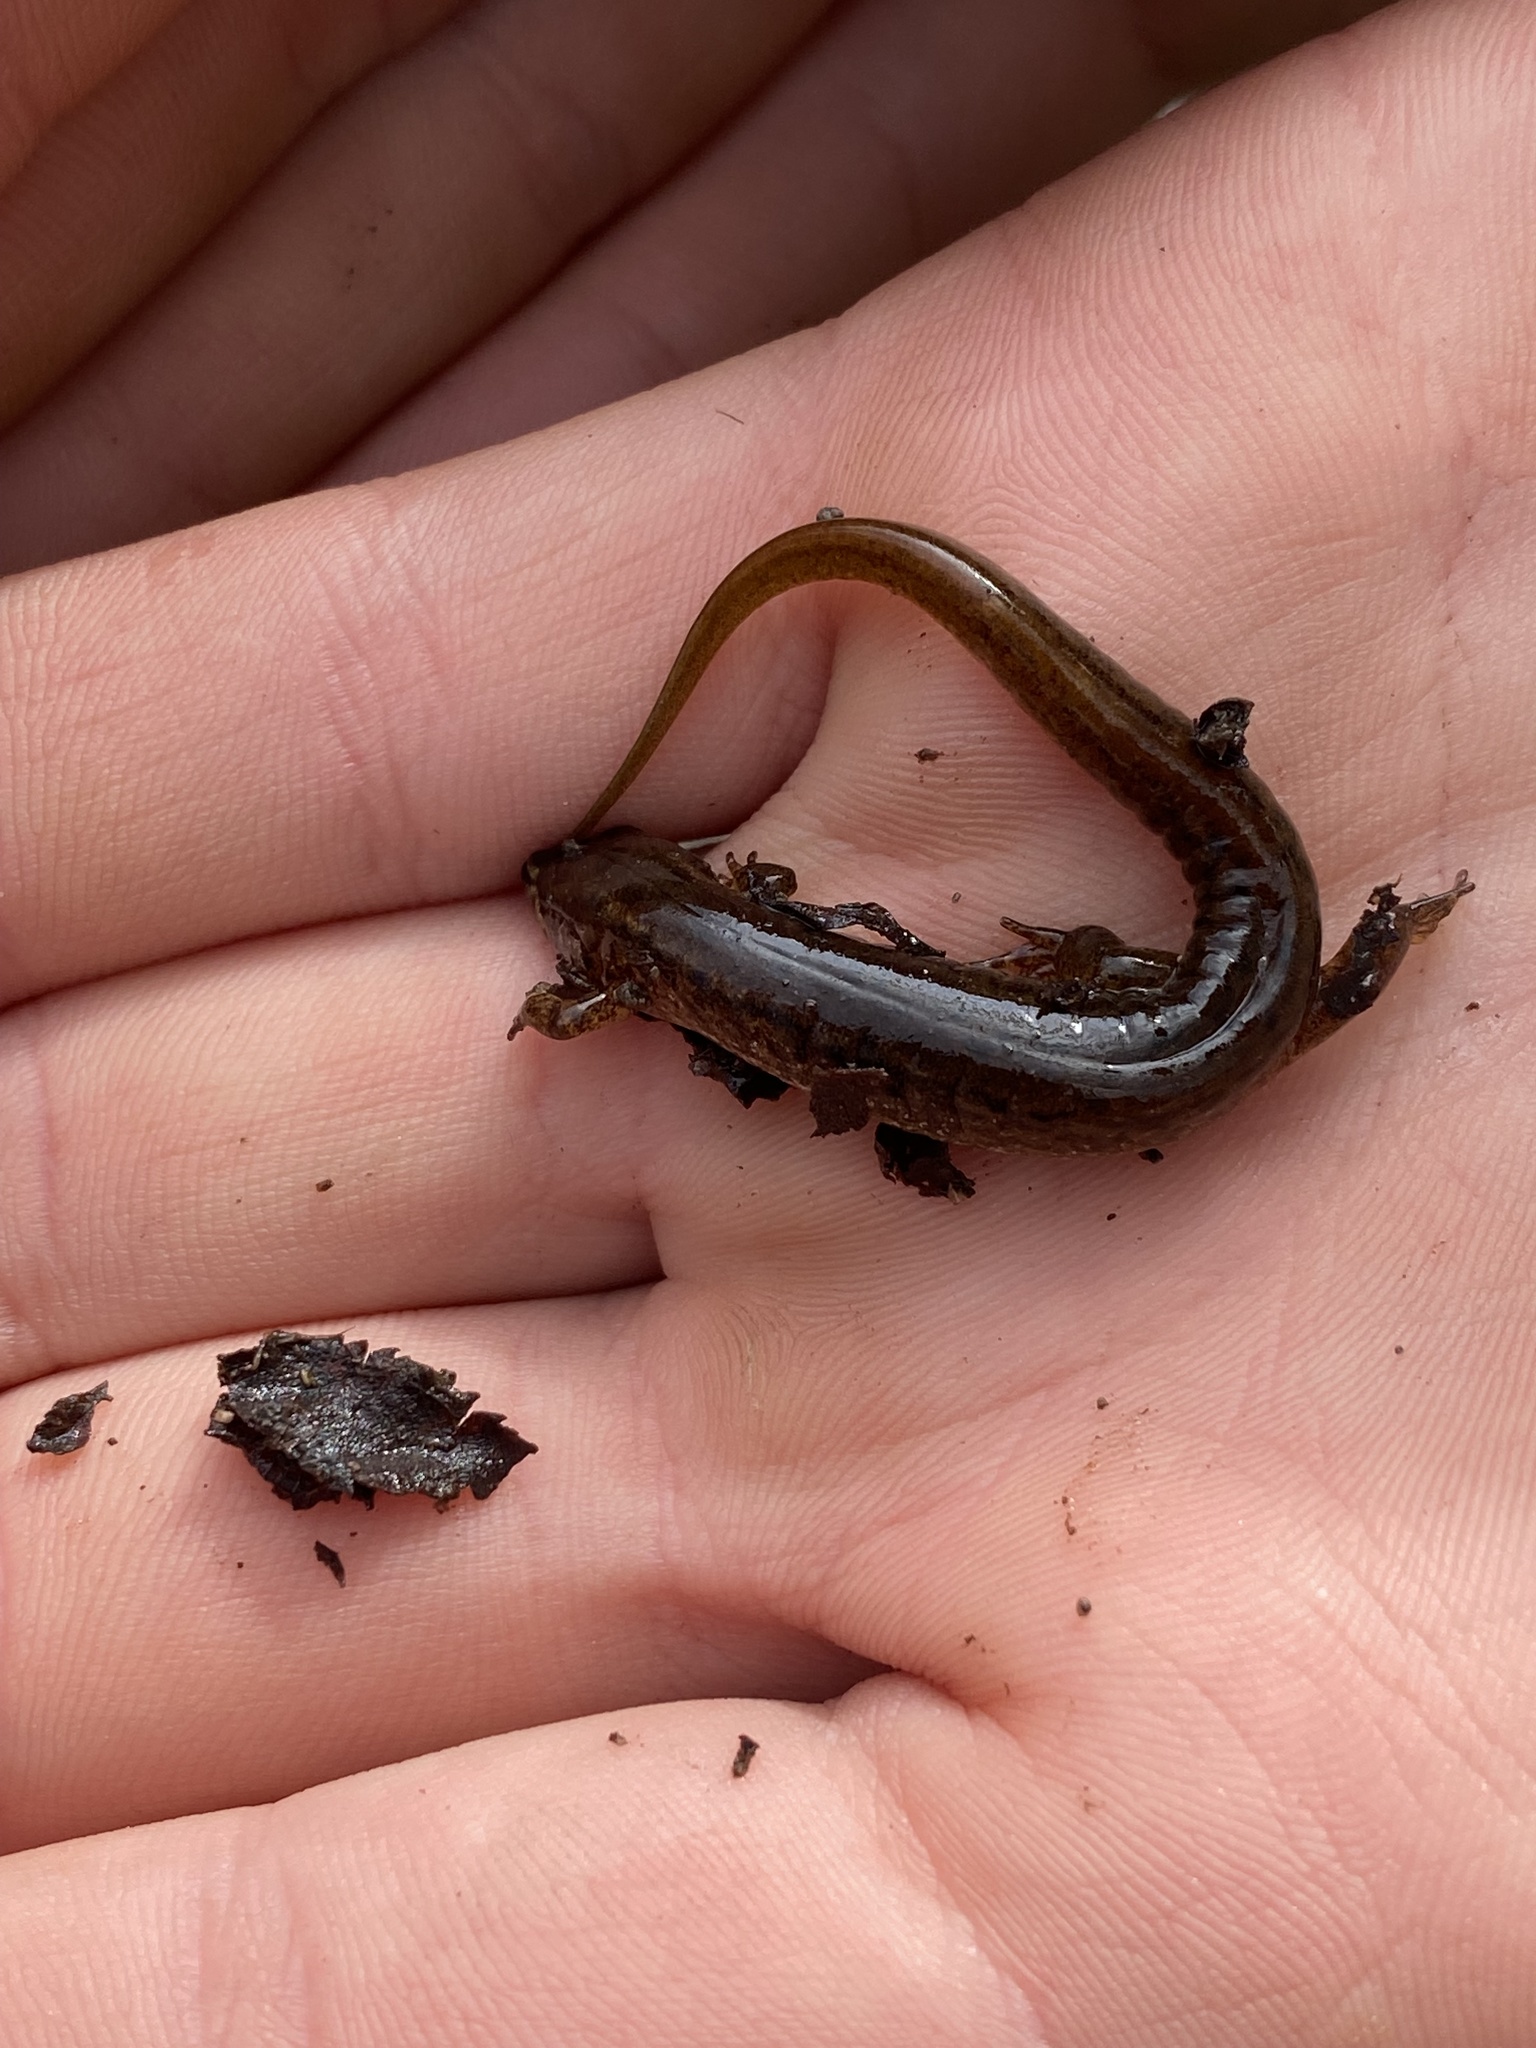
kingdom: Animalia
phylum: Chordata
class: Amphibia
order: Caudata
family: Plethodontidae
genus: Desmognathus
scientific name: Desmognathus fuscus
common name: Northern dusky salamander
